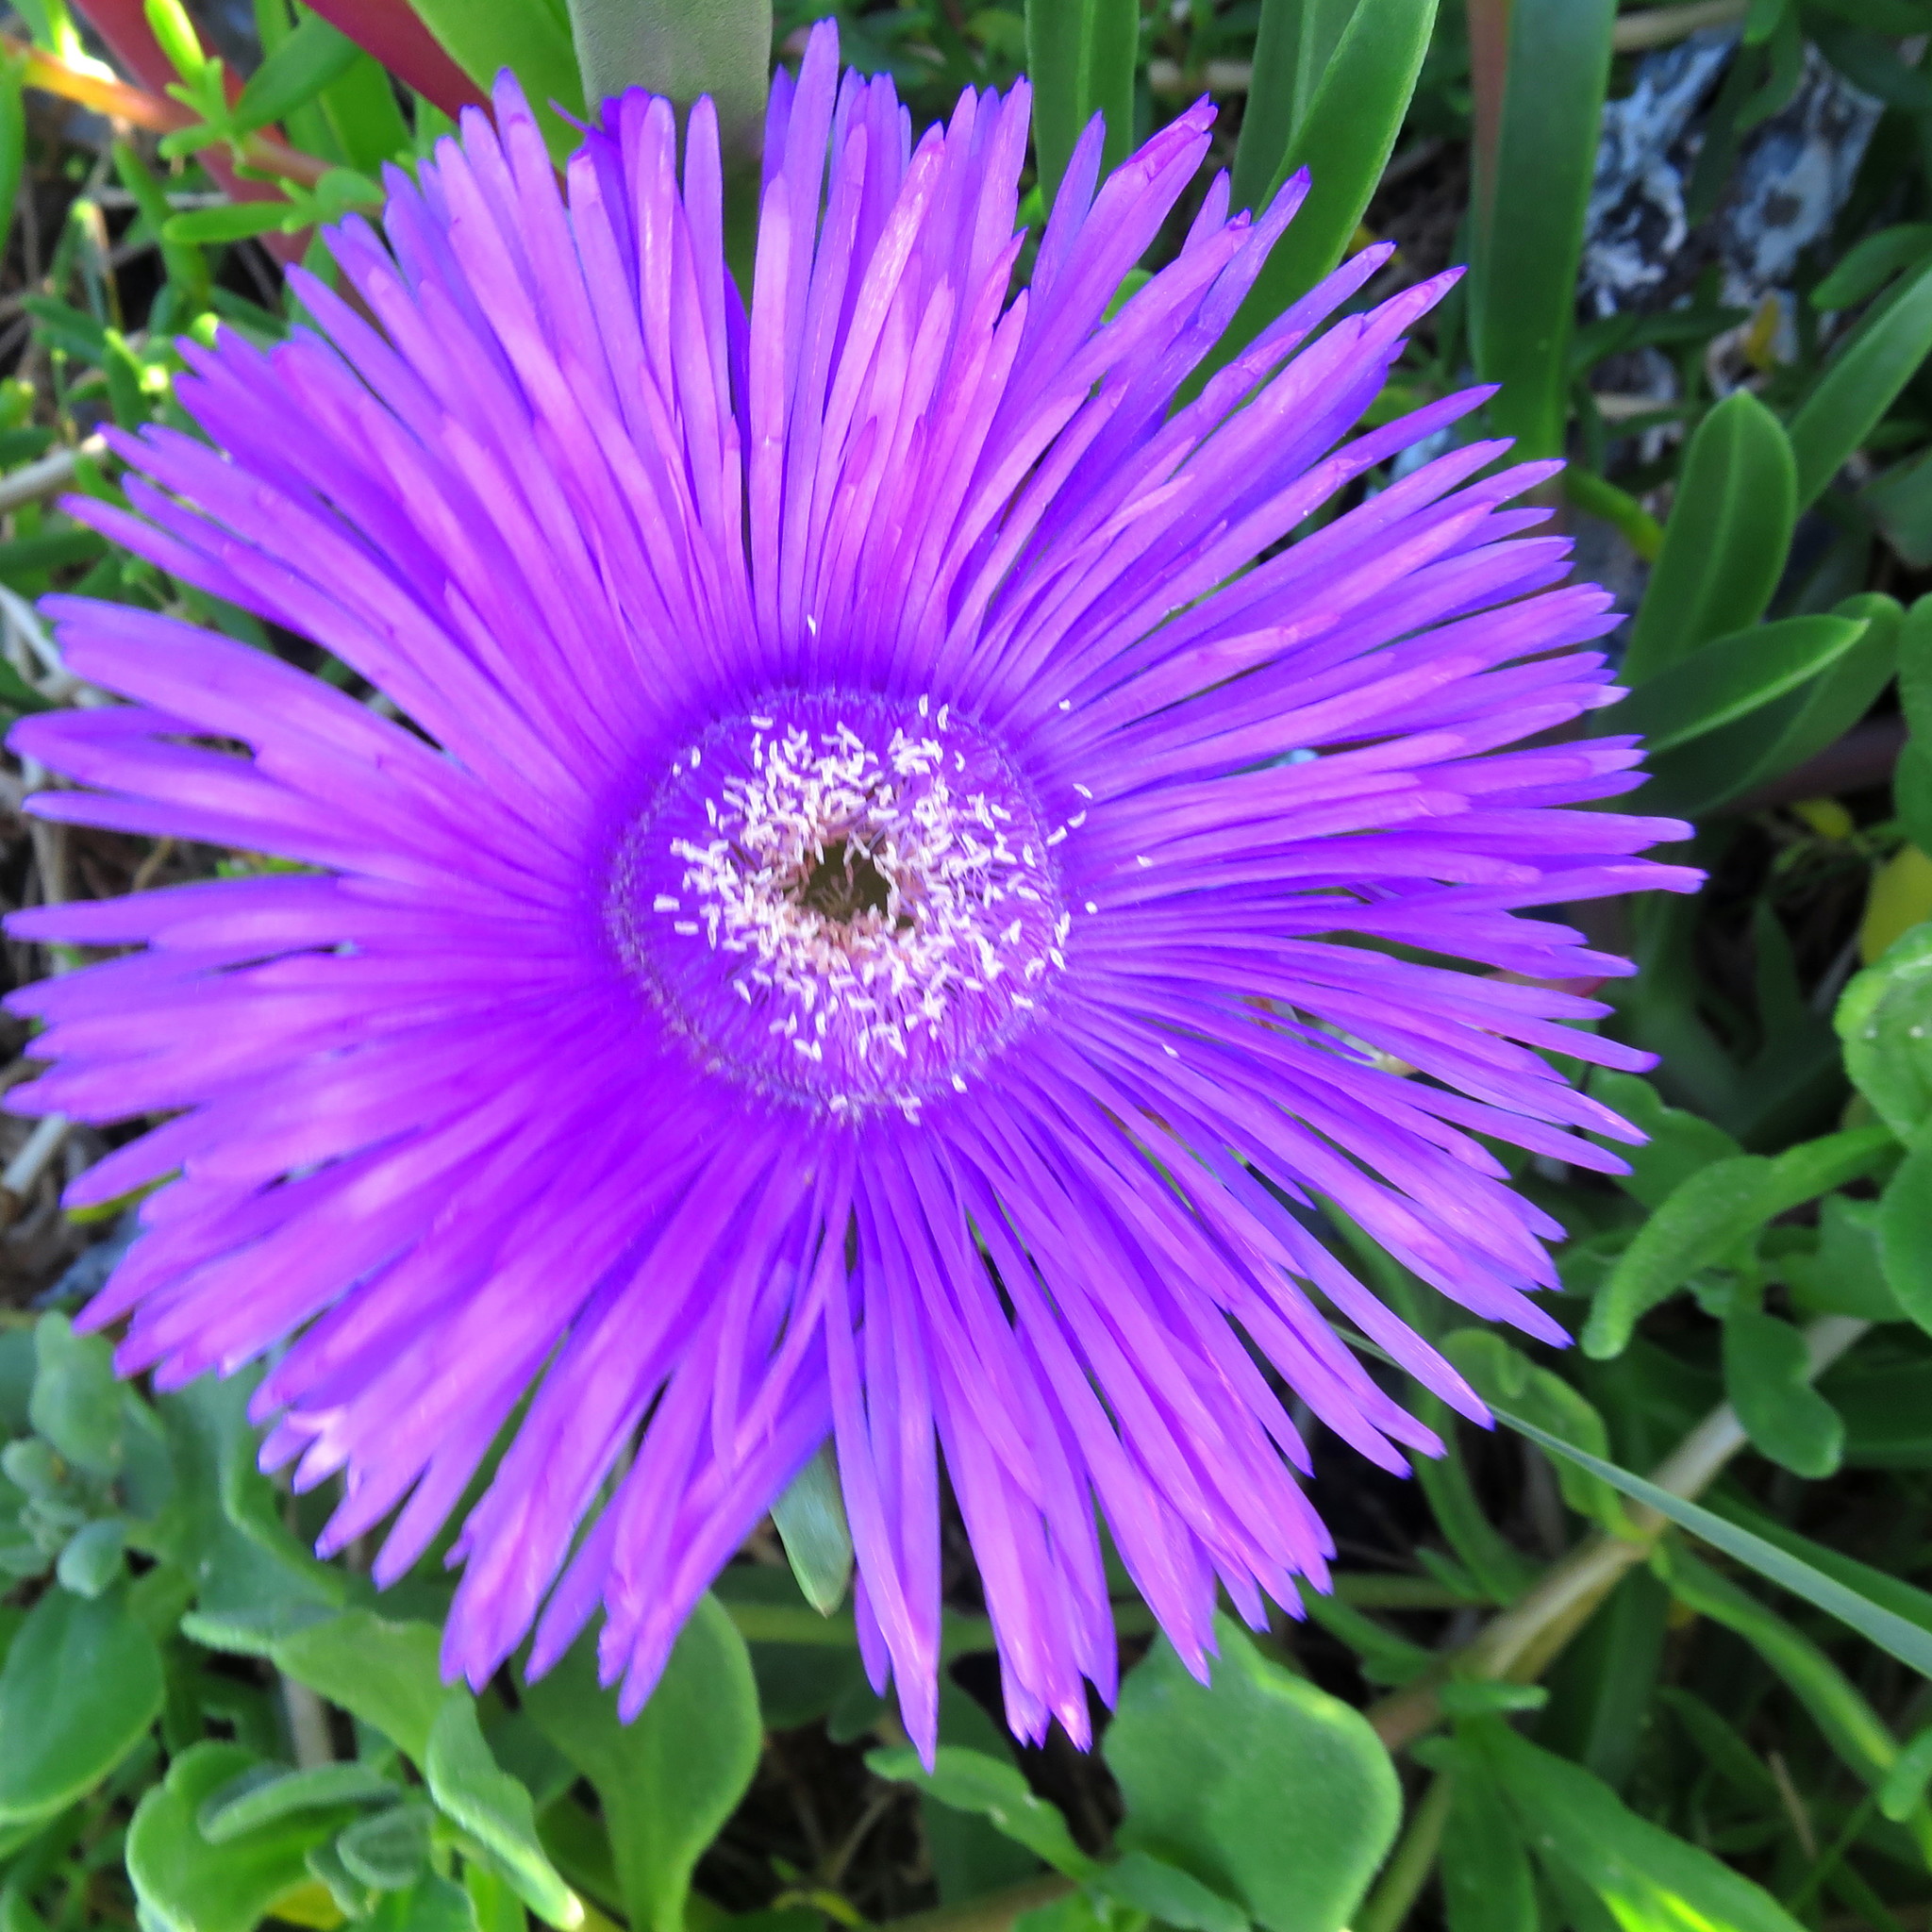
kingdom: Plantae
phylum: Tracheophyta
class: Magnoliopsida
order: Caryophyllales
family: Aizoaceae
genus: Carpobrotus
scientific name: Carpobrotus deliciosus
